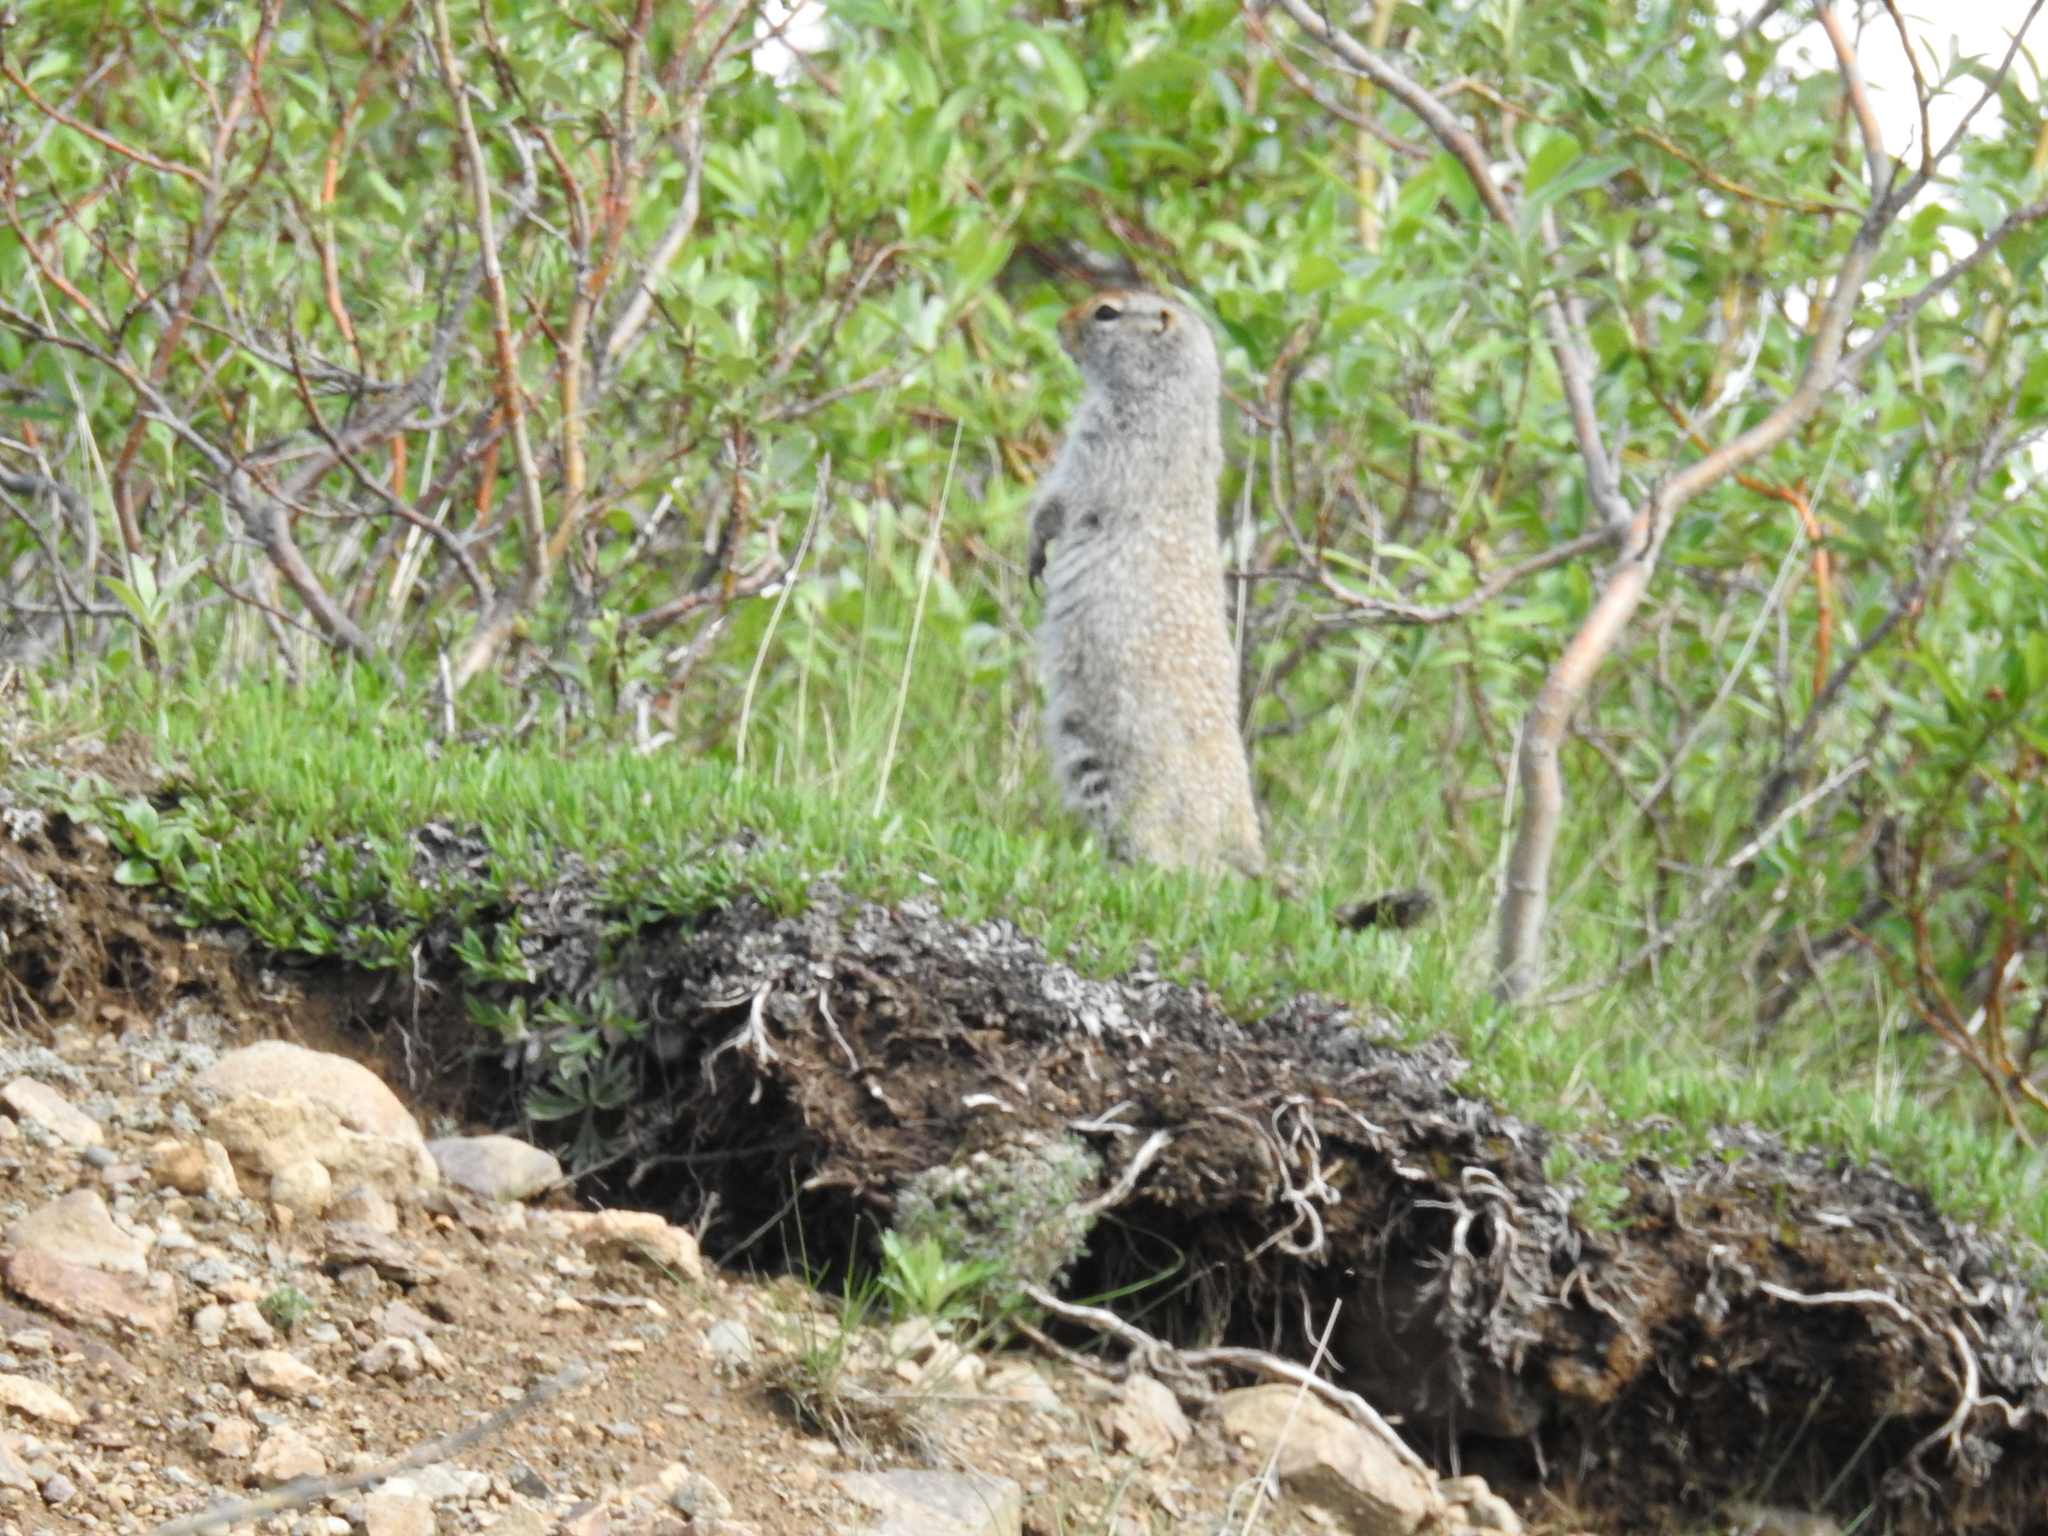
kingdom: Animalia
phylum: Chordata
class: Mammalia
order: Rodentia
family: Sciuridae
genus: Urocitellus
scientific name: Urocitellus parryii
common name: Arctic ground squirrel
